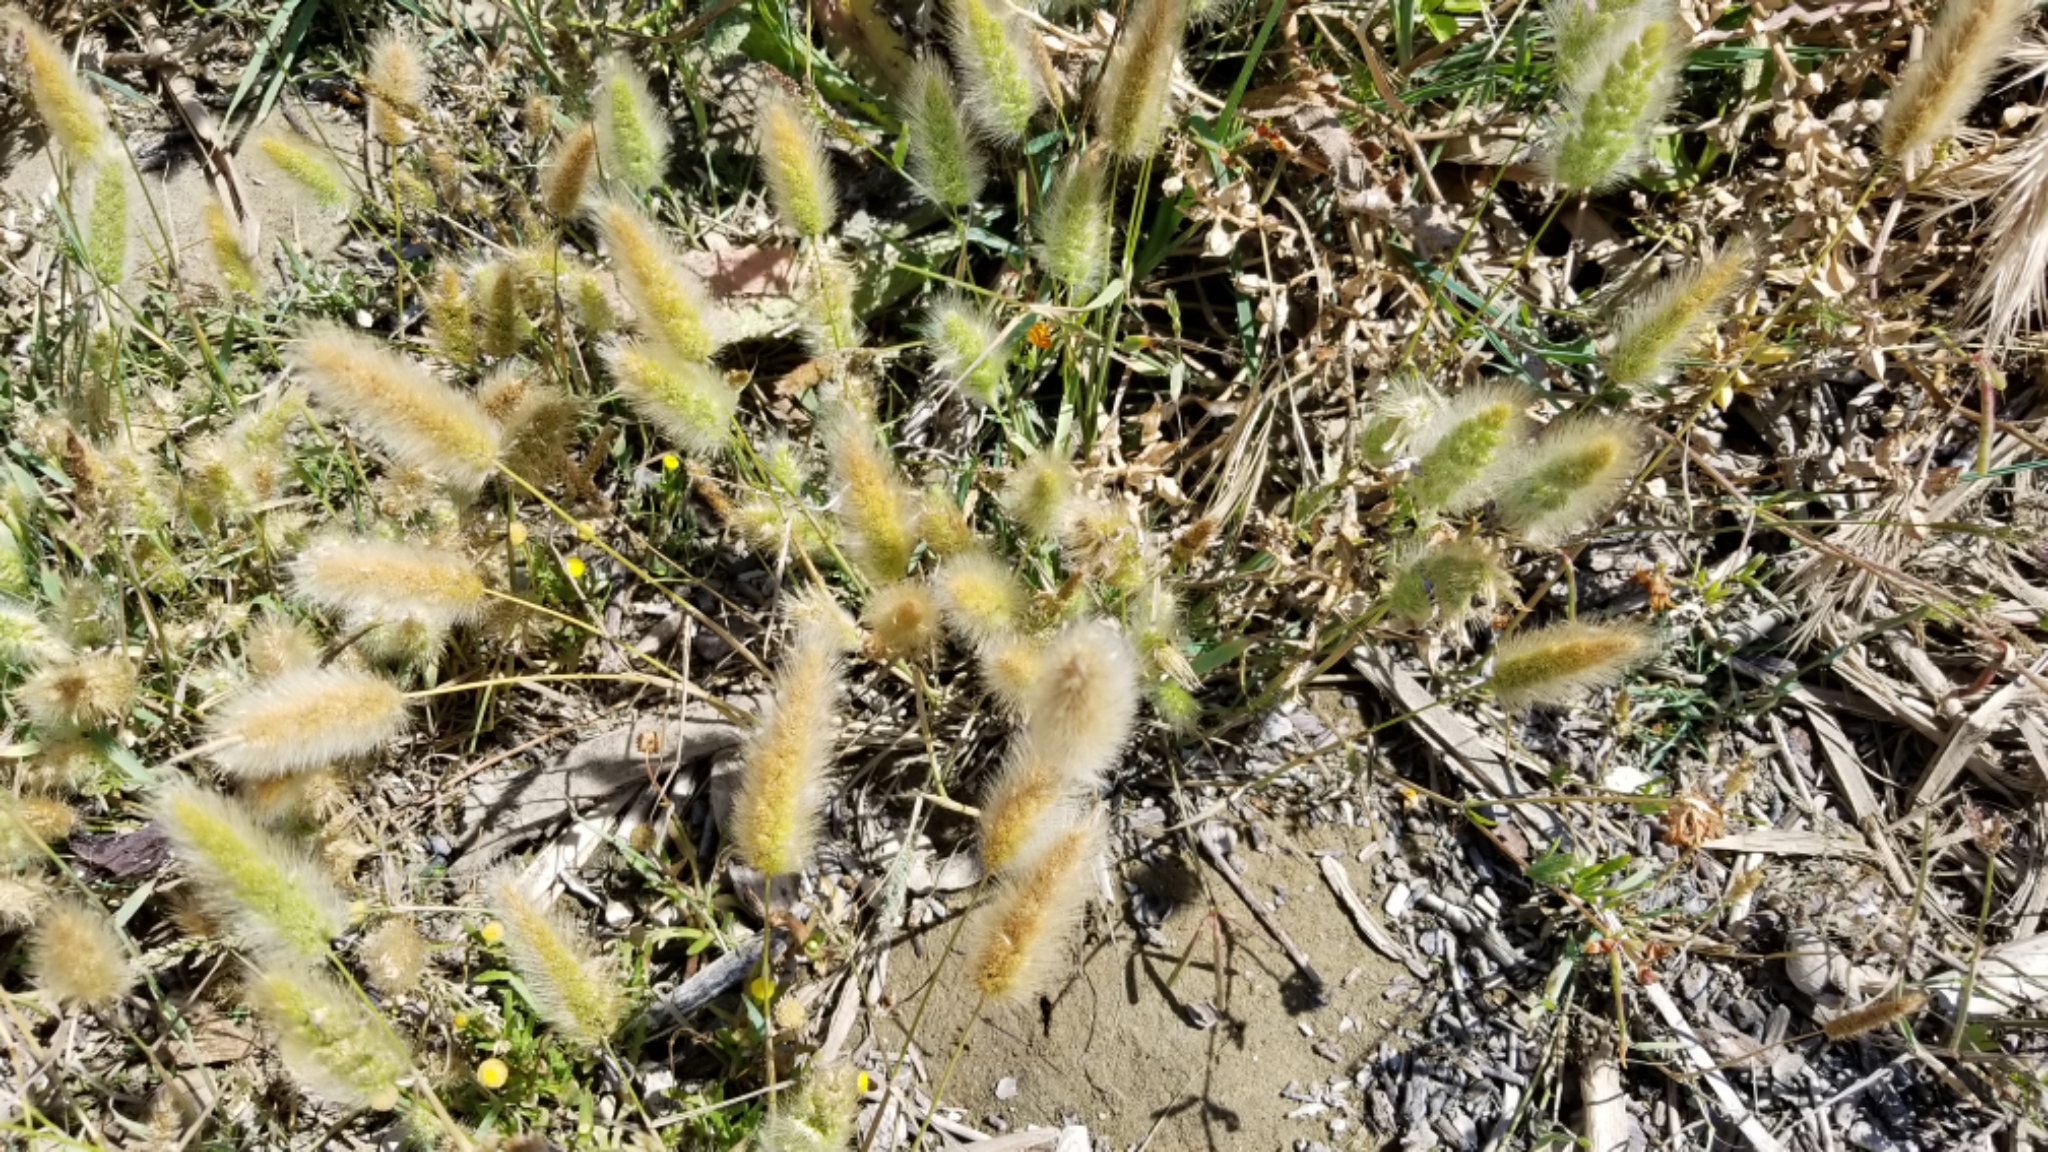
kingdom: Plantae
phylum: Tracheophyta
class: Liliopsida
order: Poales
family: Poaceae
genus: Polypogon
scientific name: Polypogon monspeliensis
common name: Annual rabbitsfoot grass
